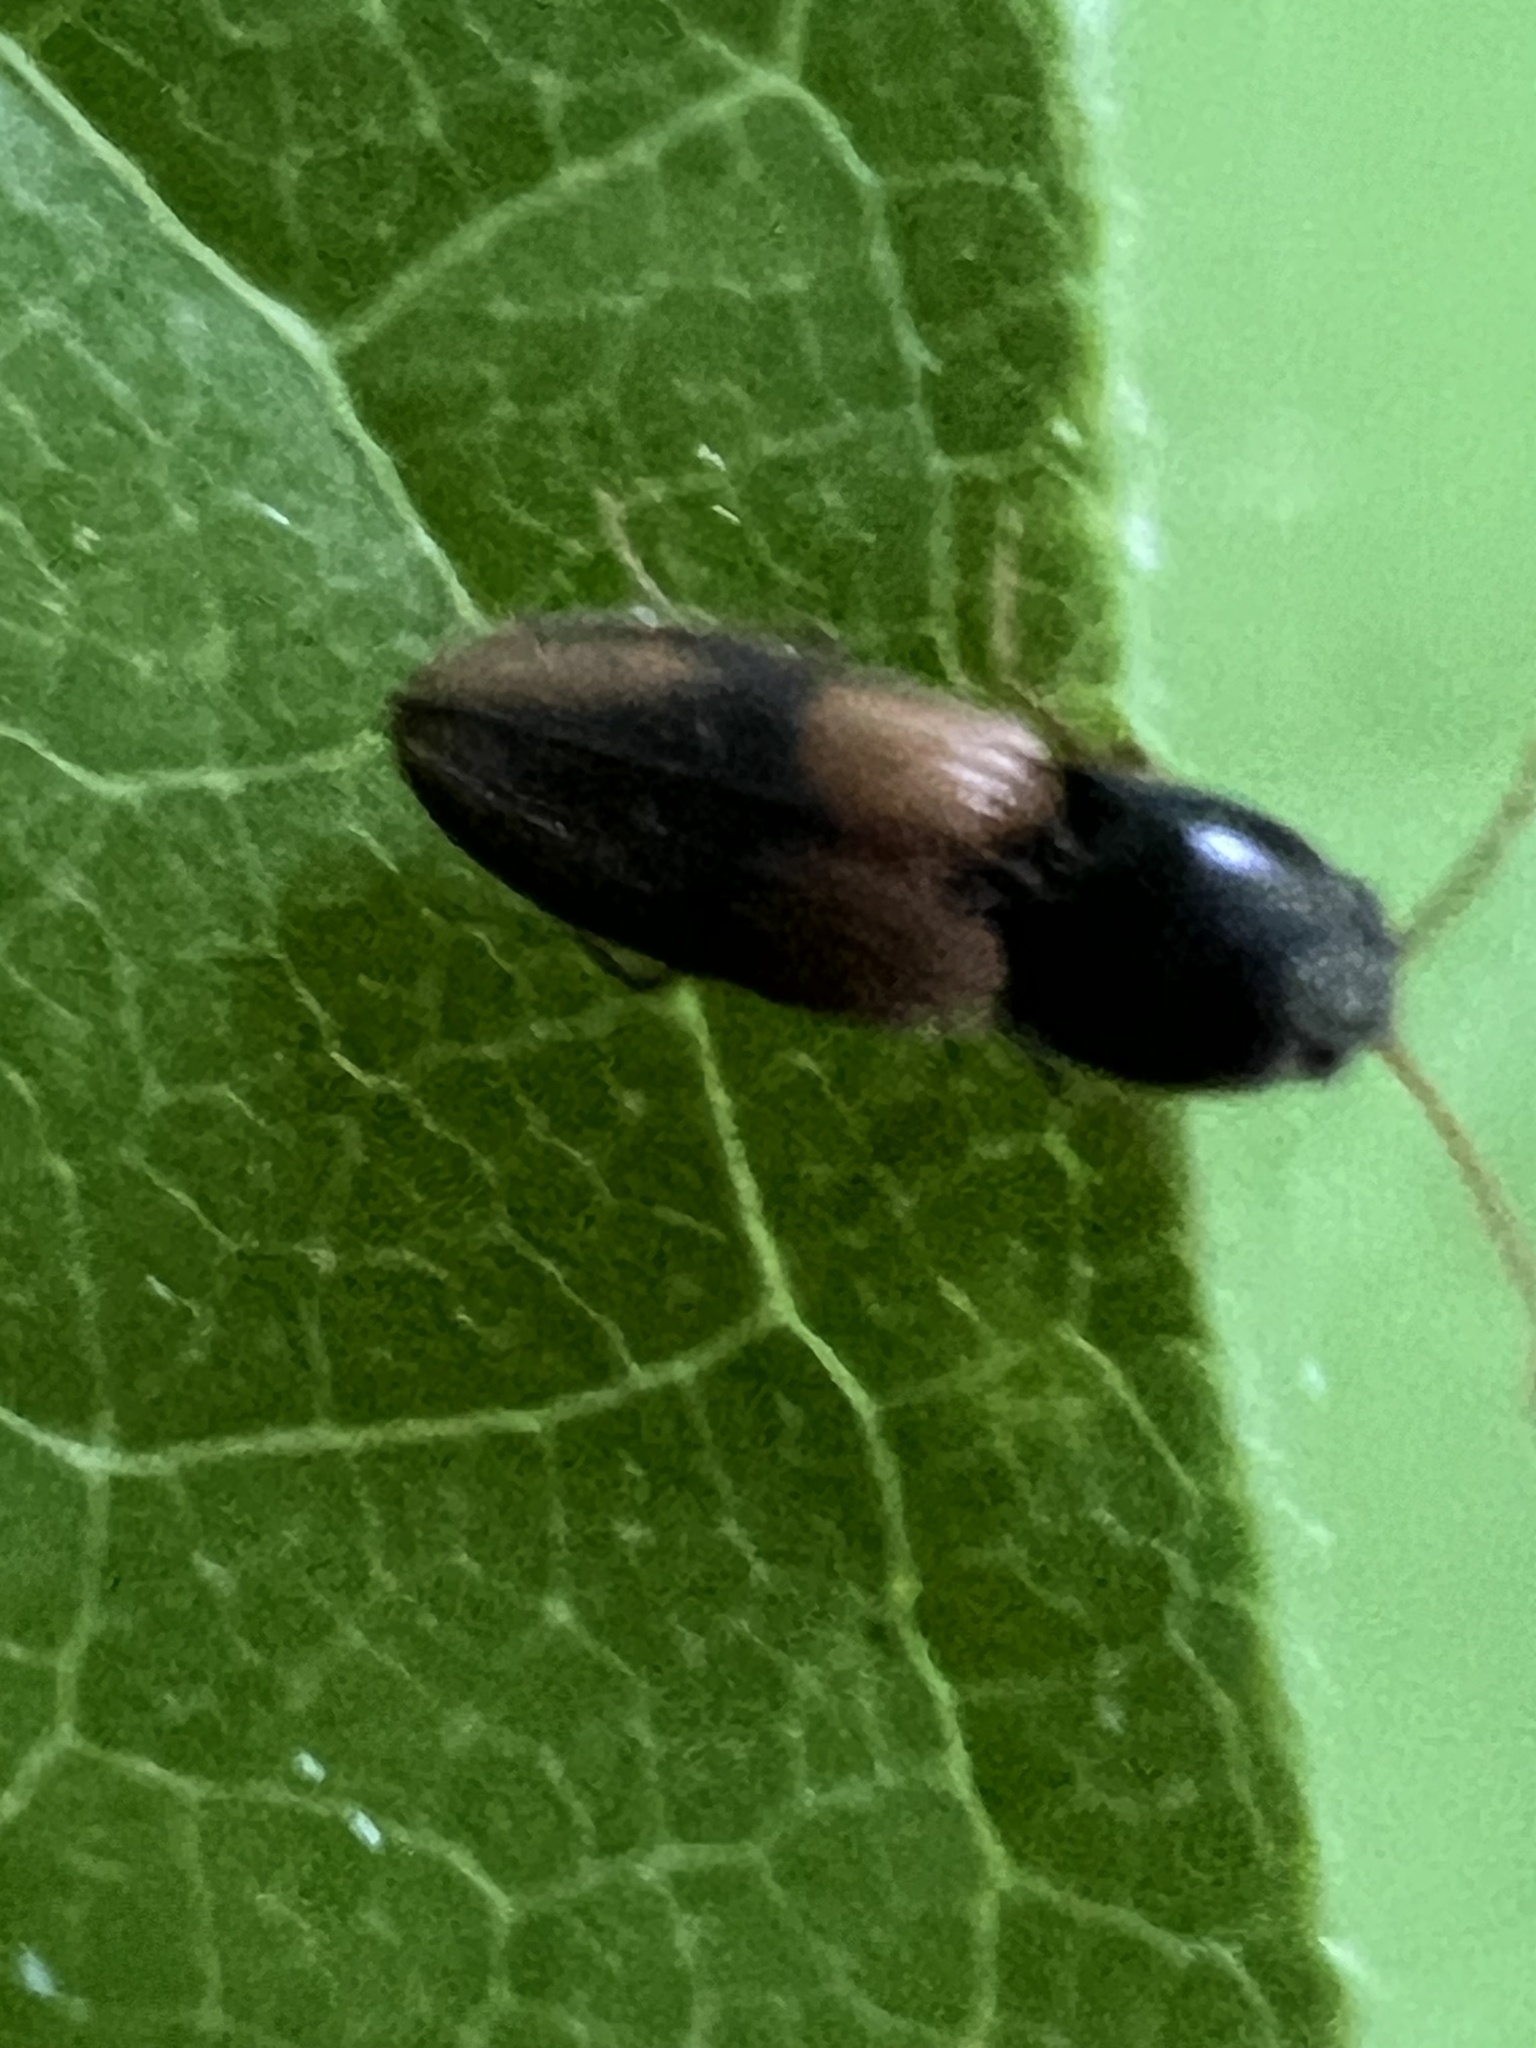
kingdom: Animalia
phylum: Arthropoda
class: Insecta
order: Coleoptera
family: Elateridae
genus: Horistonotus
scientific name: Horistonotus curiatus
